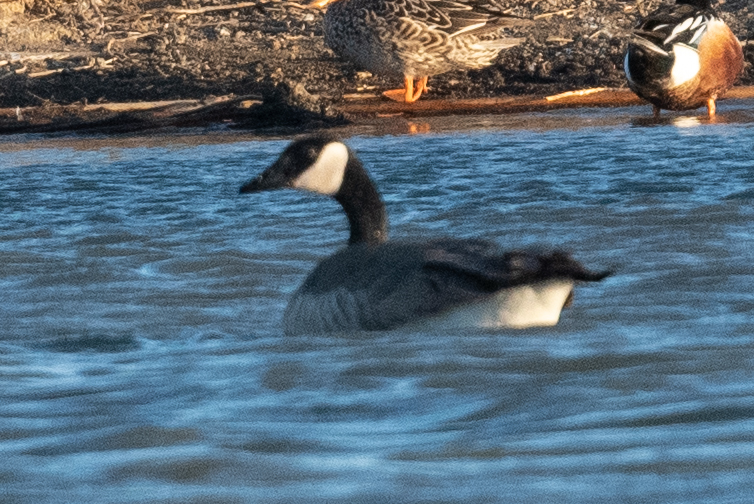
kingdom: Animalia
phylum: Chordata
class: Aves
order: Anseriformes
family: Anatidae
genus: Branta
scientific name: Branta canadensis
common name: Canada goose
